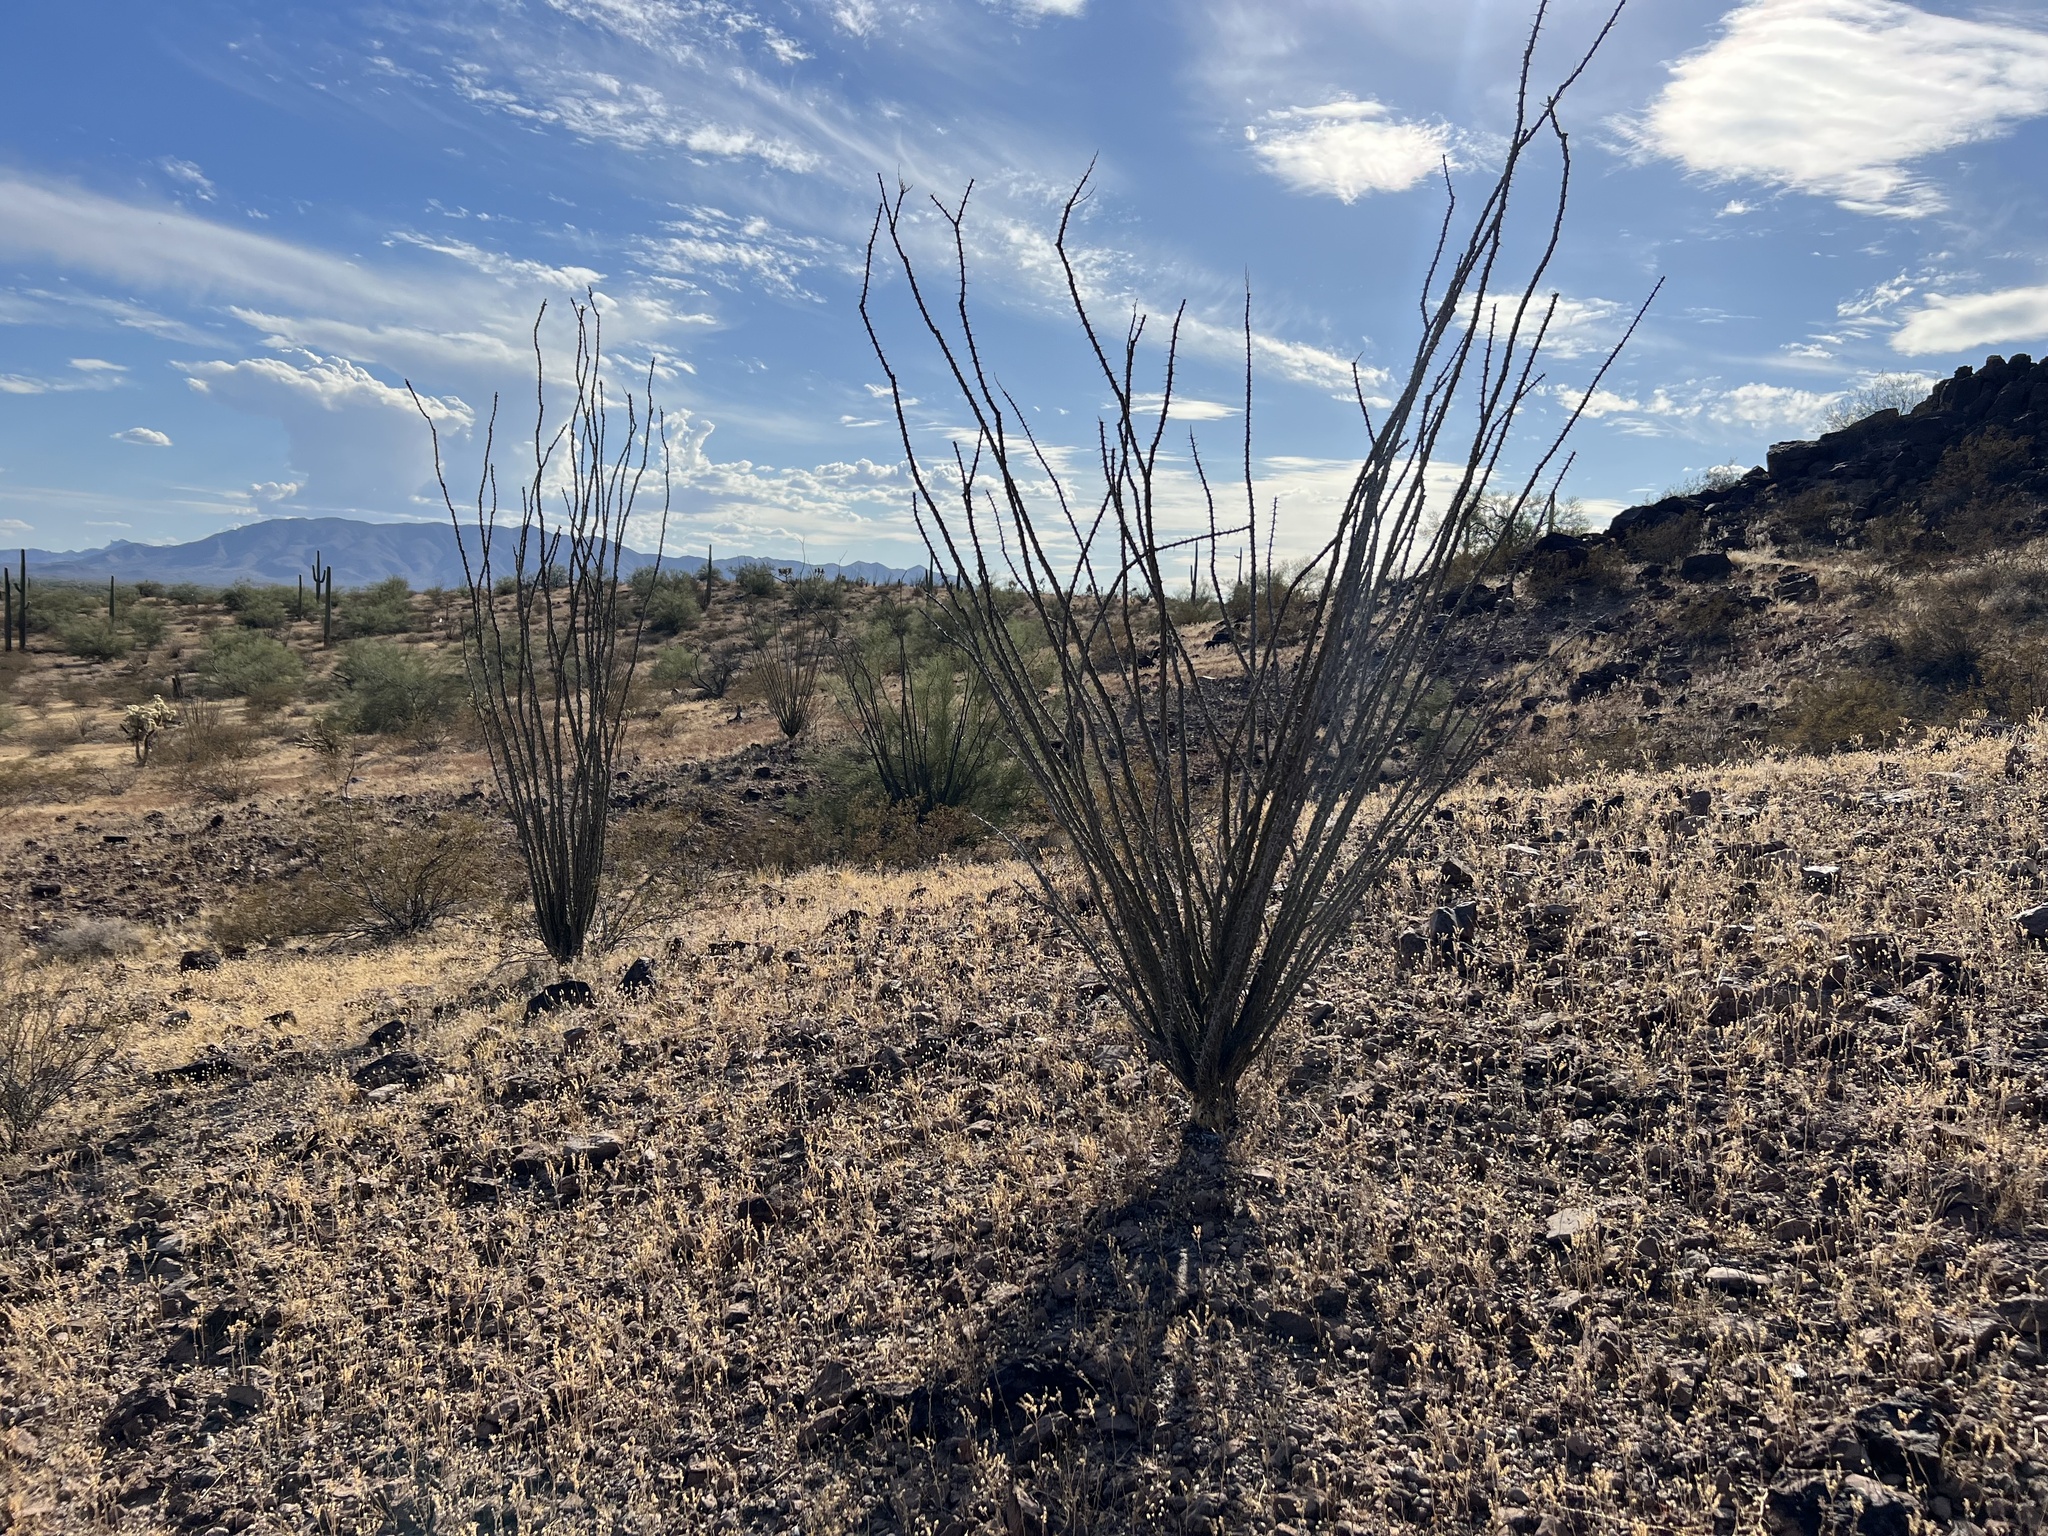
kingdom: Plantae
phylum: Tracheophyta
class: Magnoliopsida
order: Ericales
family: Fouquieriaceae
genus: Fouquieria
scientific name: Fouquieria splendens
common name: Vine-cactus
